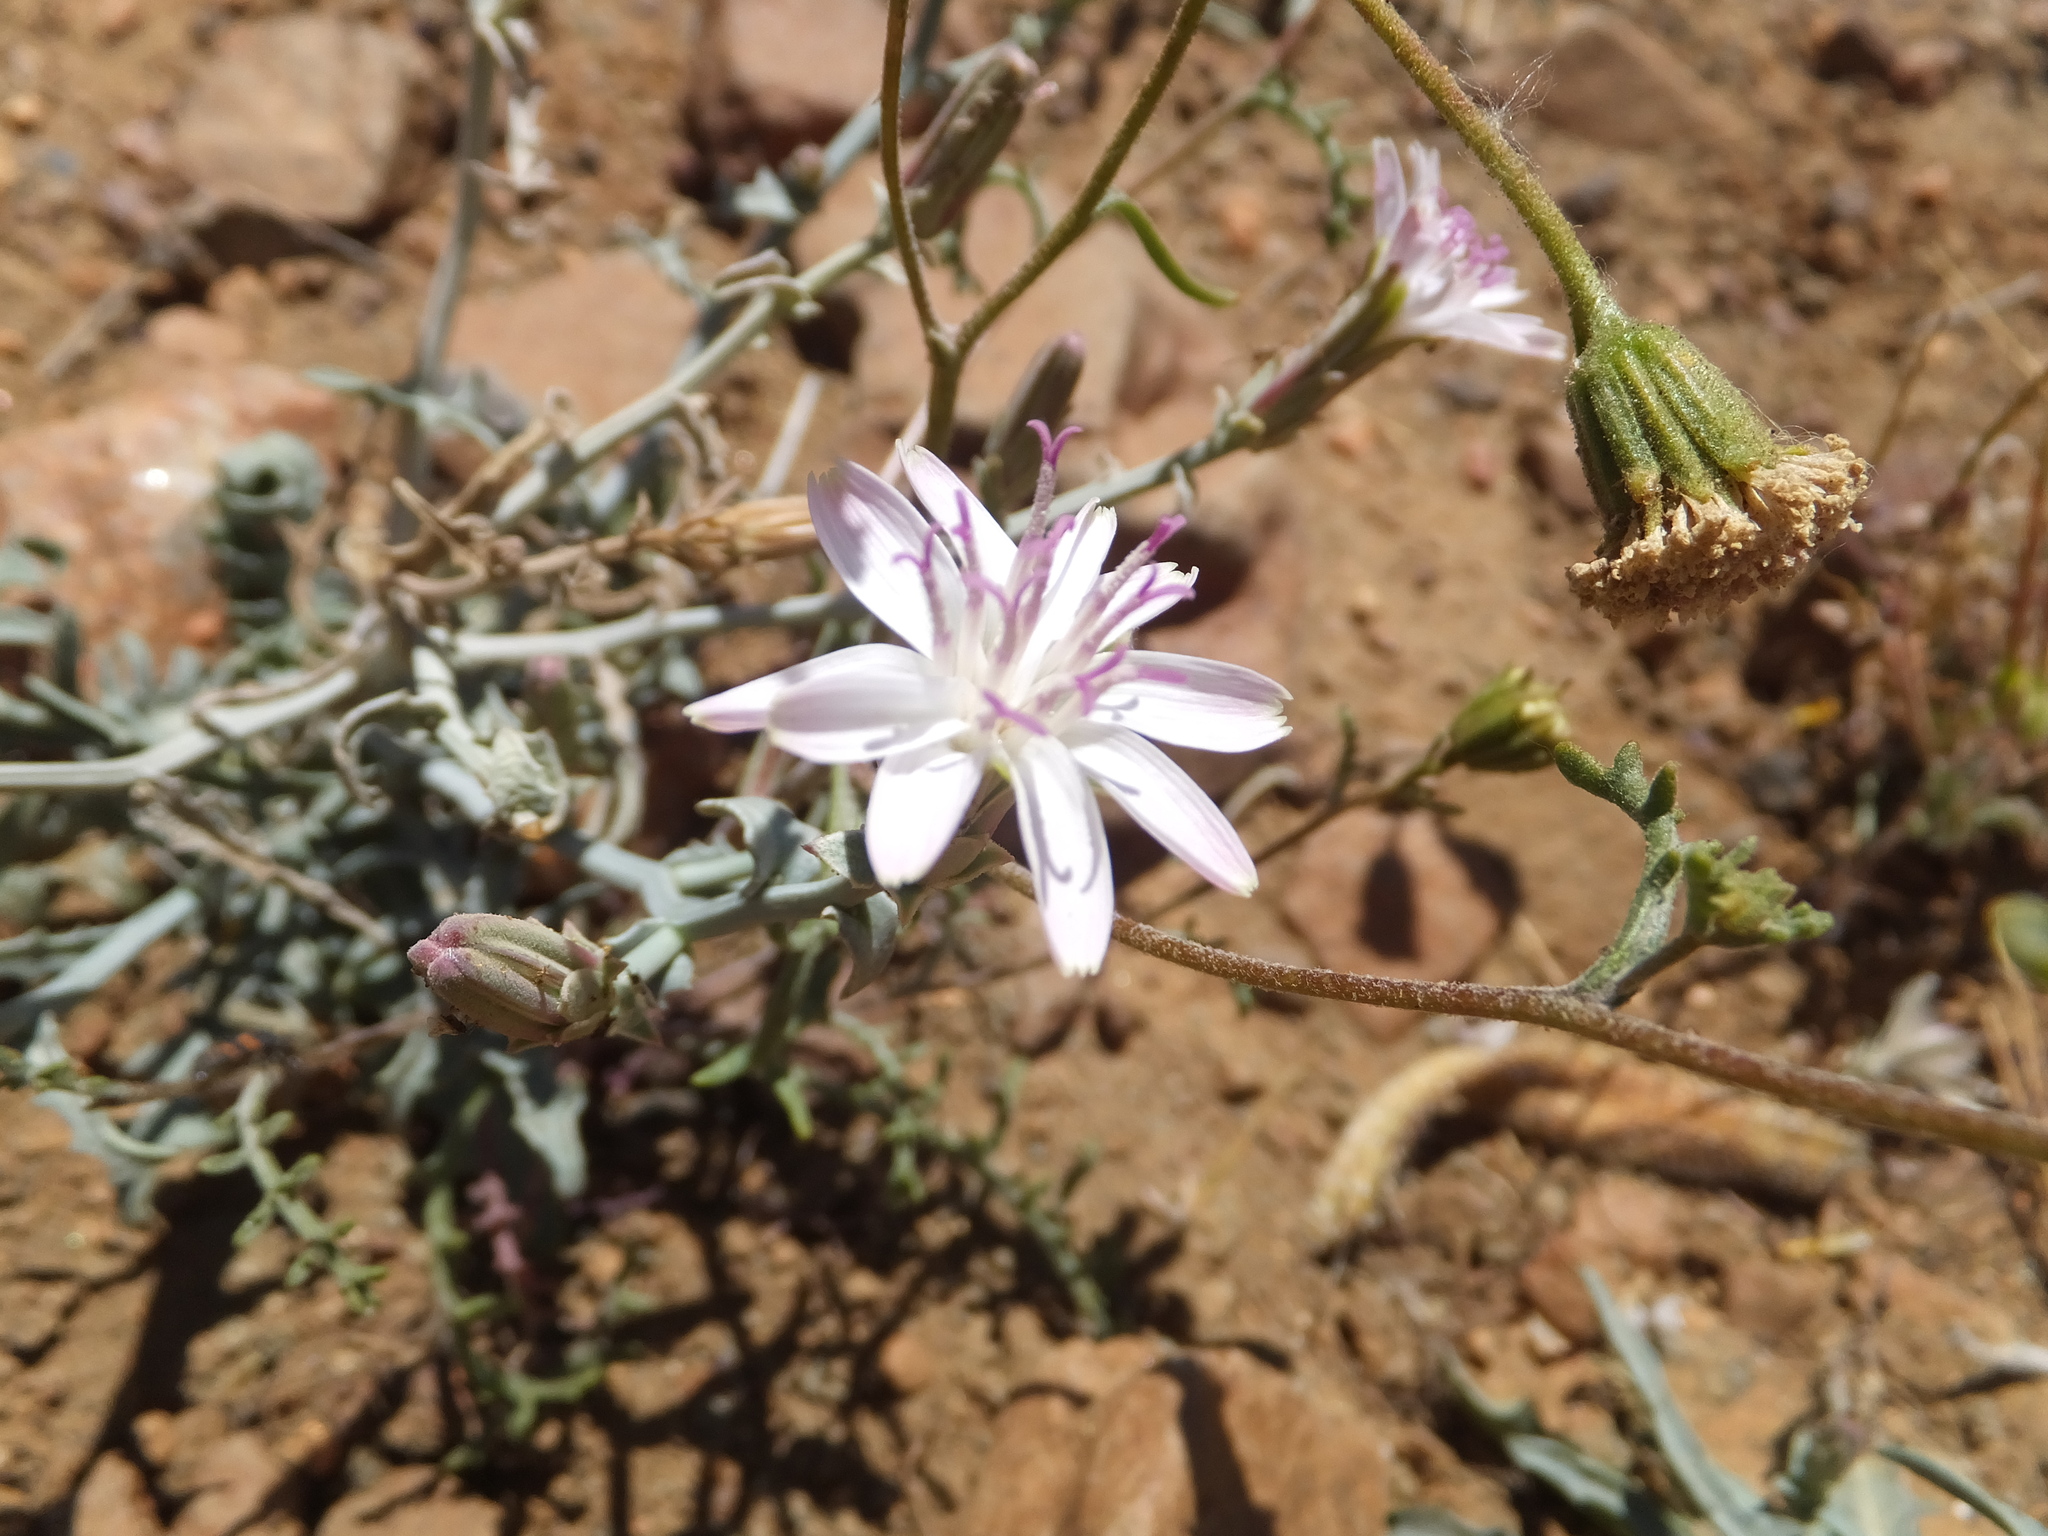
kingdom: Plantae
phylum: Tracheophyta
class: Magnoliopsida
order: Asterales
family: Asteraceae
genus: Stephanomeria
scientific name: Stephanomeria parryi
